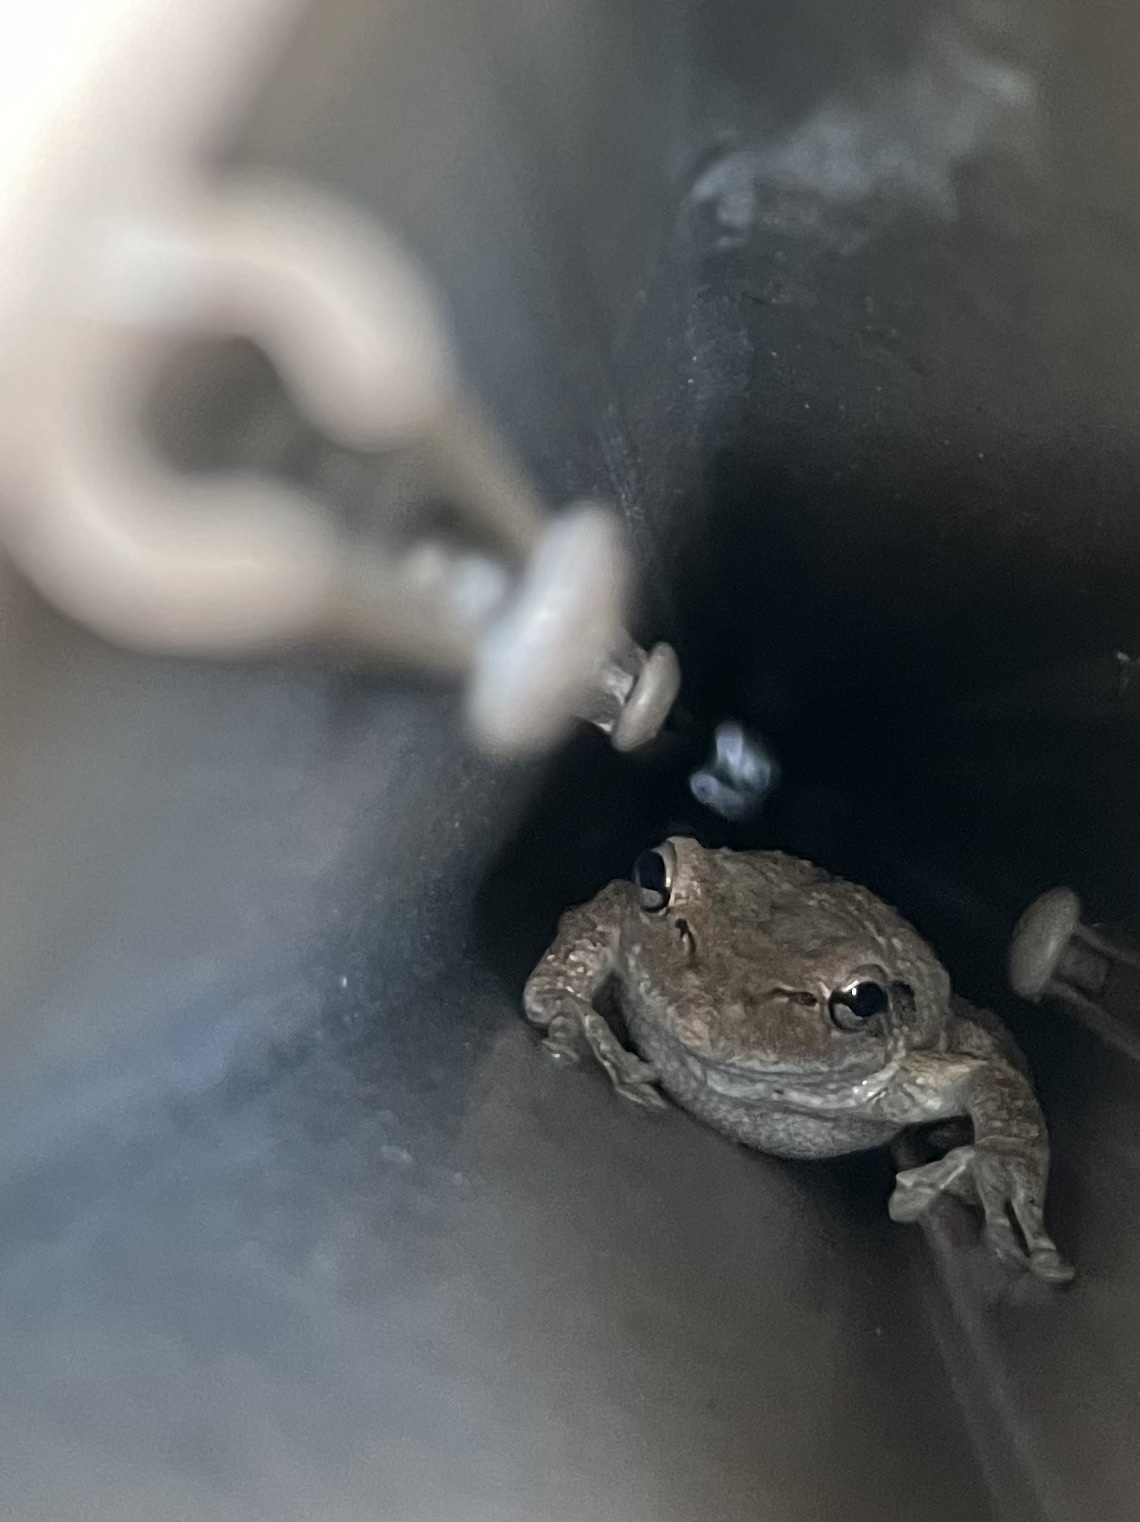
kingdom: Animalia
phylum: Chordata
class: Amphibia
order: Anura
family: Hylidae
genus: Osteopilus
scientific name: Osteopilus septentrionalis
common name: Cuban treefrog
